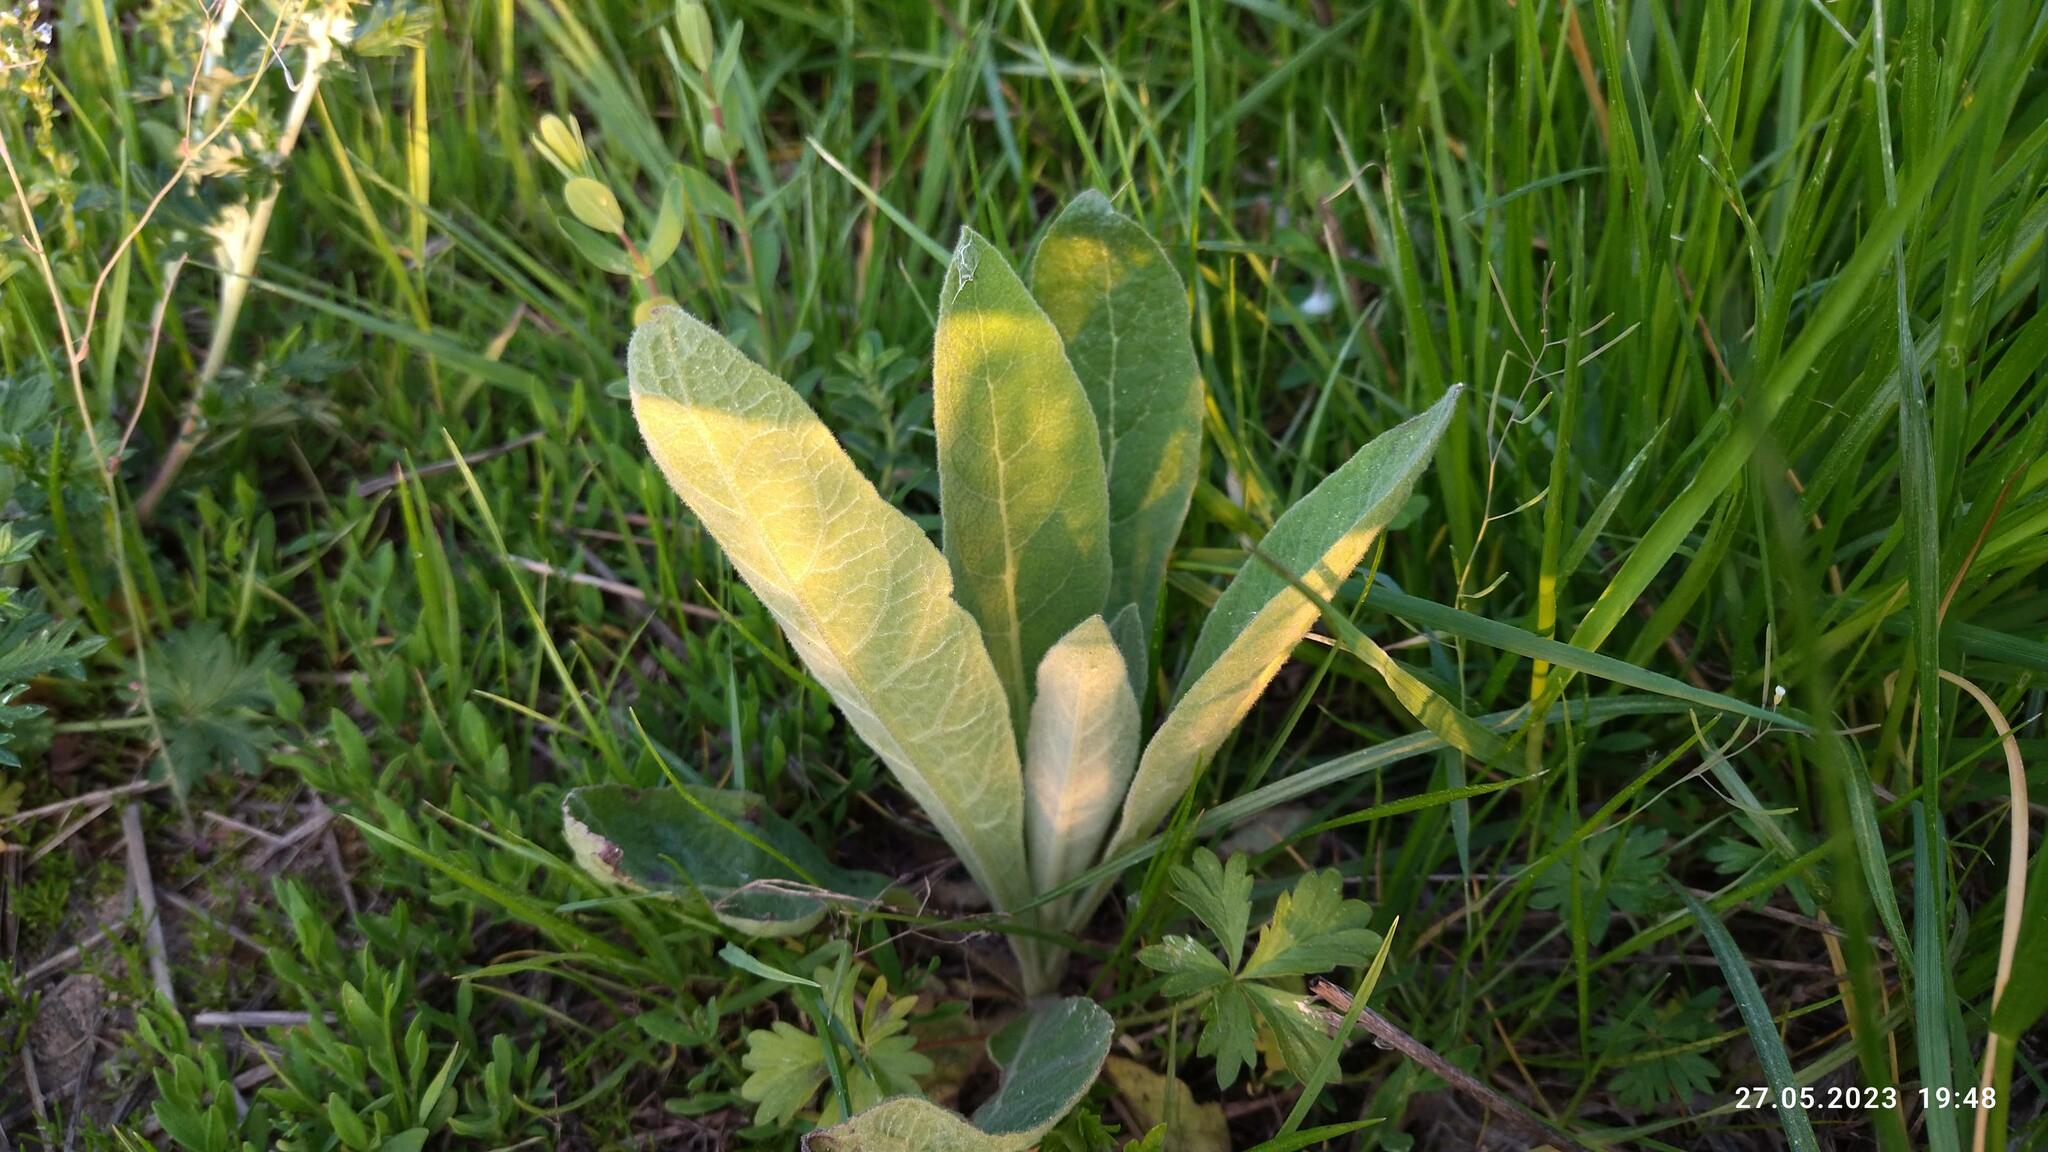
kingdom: Plantae
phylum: Tracheophyta
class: Magnoliopsida
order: Lamiales
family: Scrophulariaceae
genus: Verbascum
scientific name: Verbascum thapsus
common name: Common mullein
